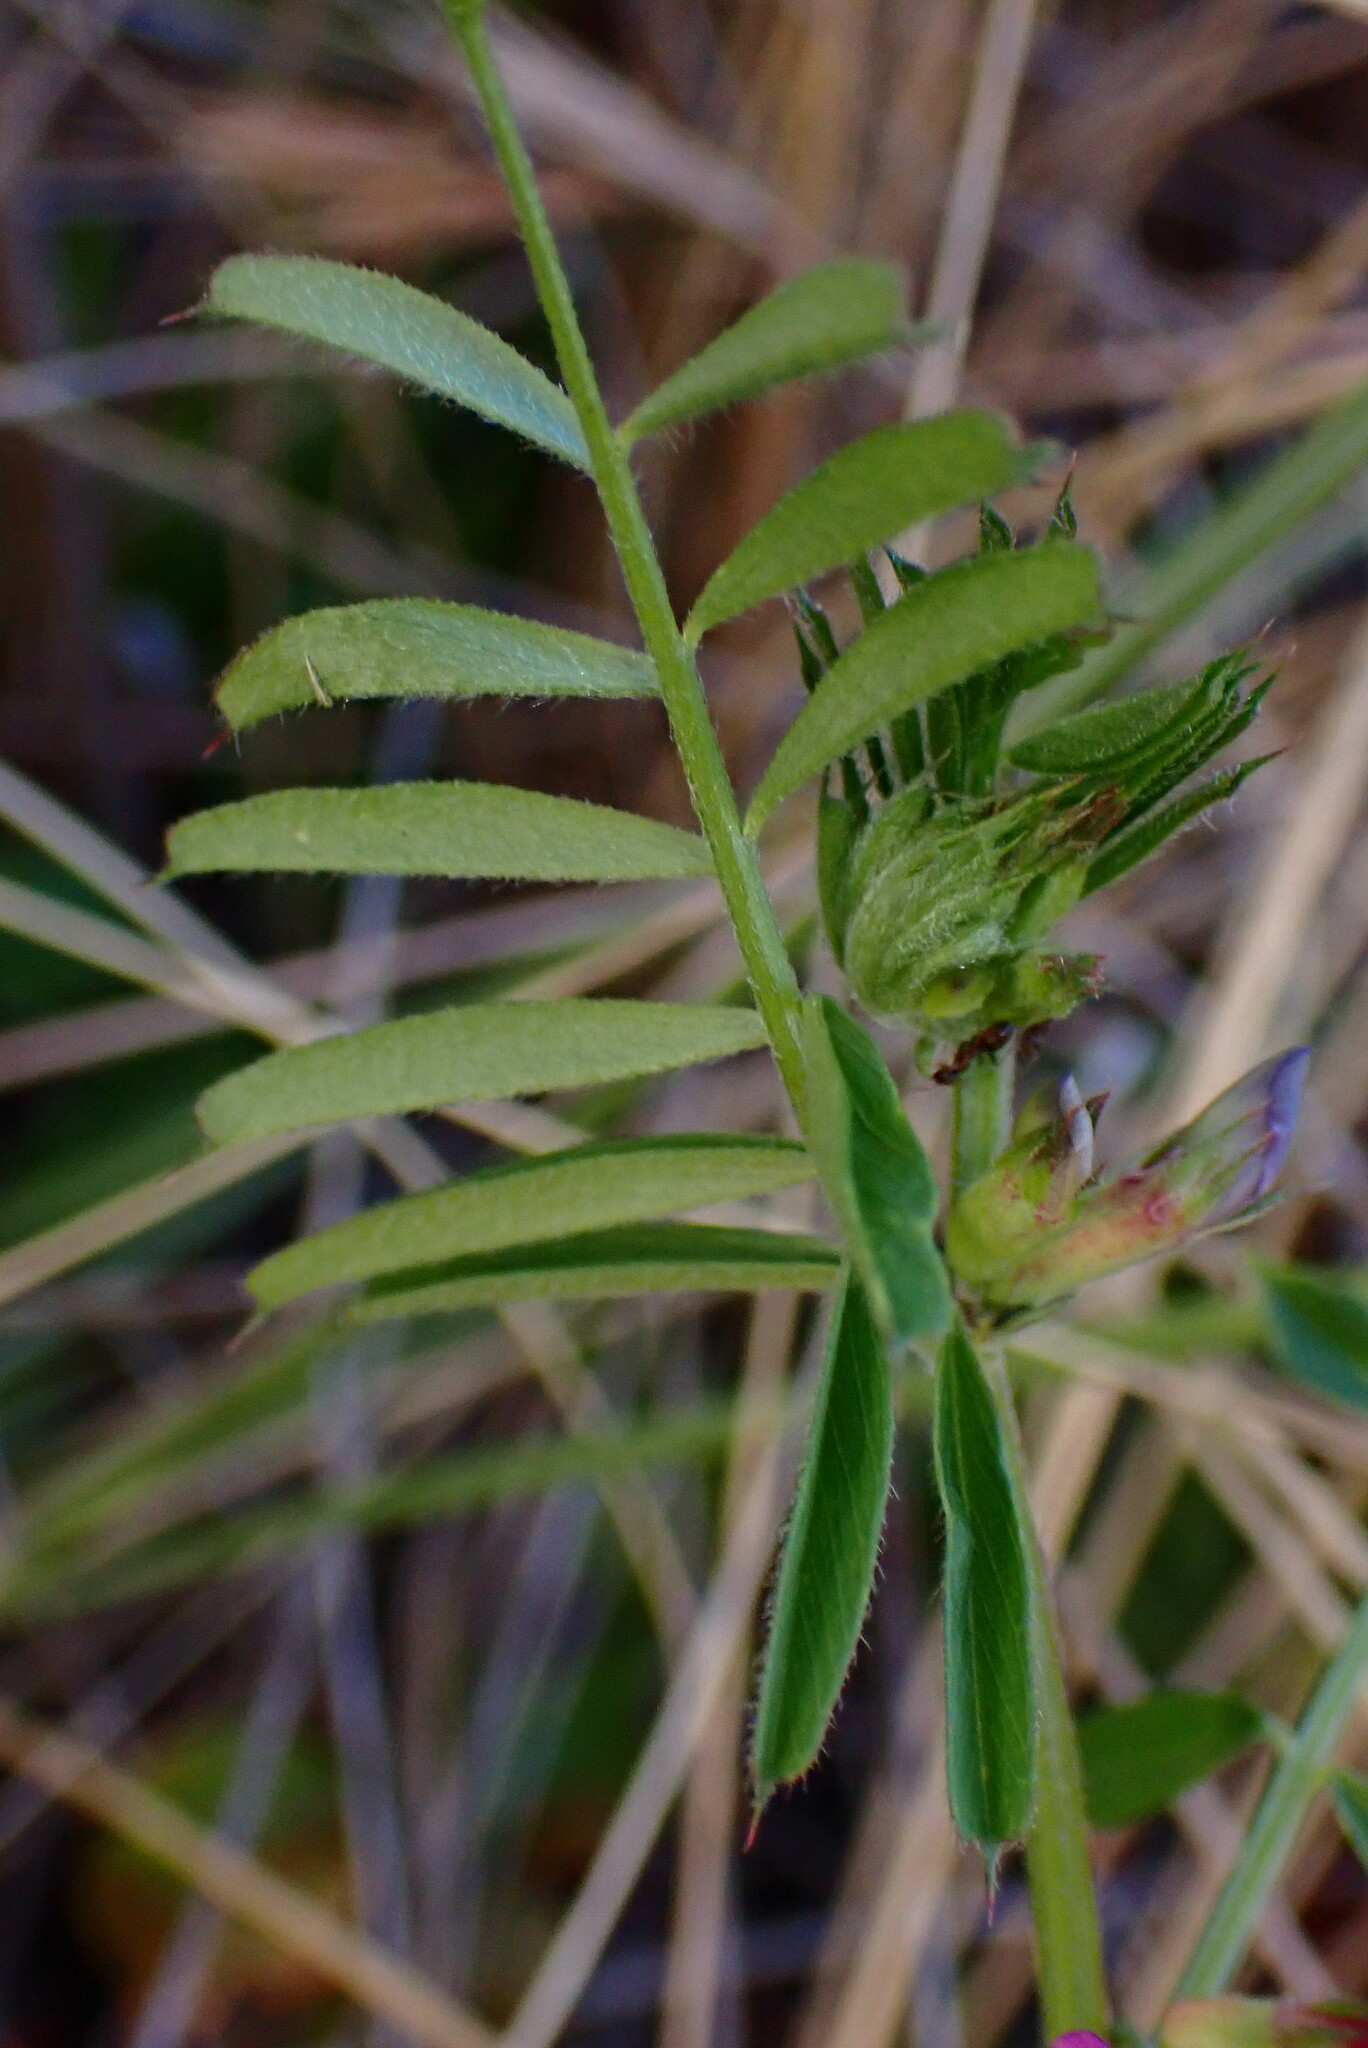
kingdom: Plantae
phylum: Tracheophyta
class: Magnoliopsida
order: Fabales
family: Fabaceae
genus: Vicia
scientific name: Vicia sativa
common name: Garden vetch
